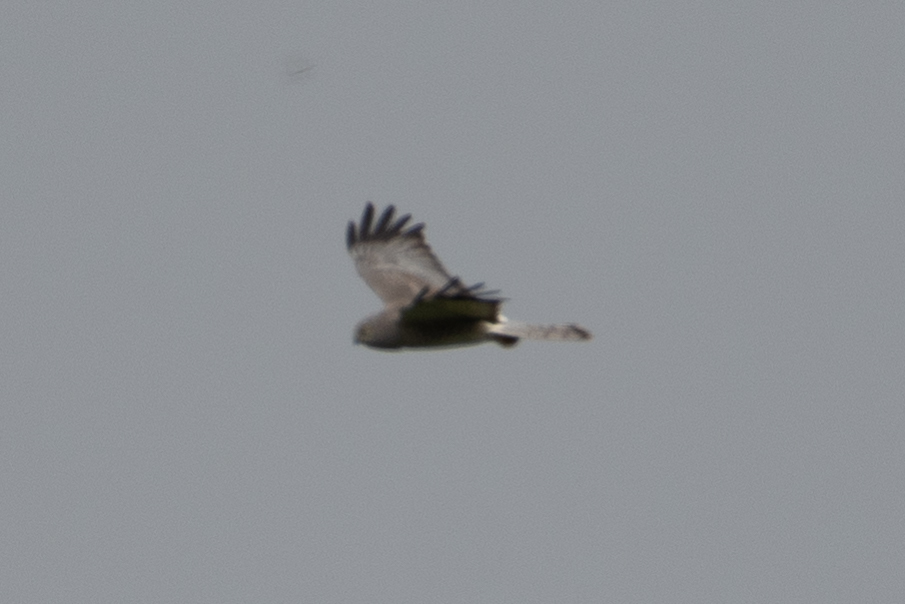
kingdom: Animalia
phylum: Chordata
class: Aves
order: Accipitriformes
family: Accipitridae
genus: Circus
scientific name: Circus cyaneus
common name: Hen harrier
